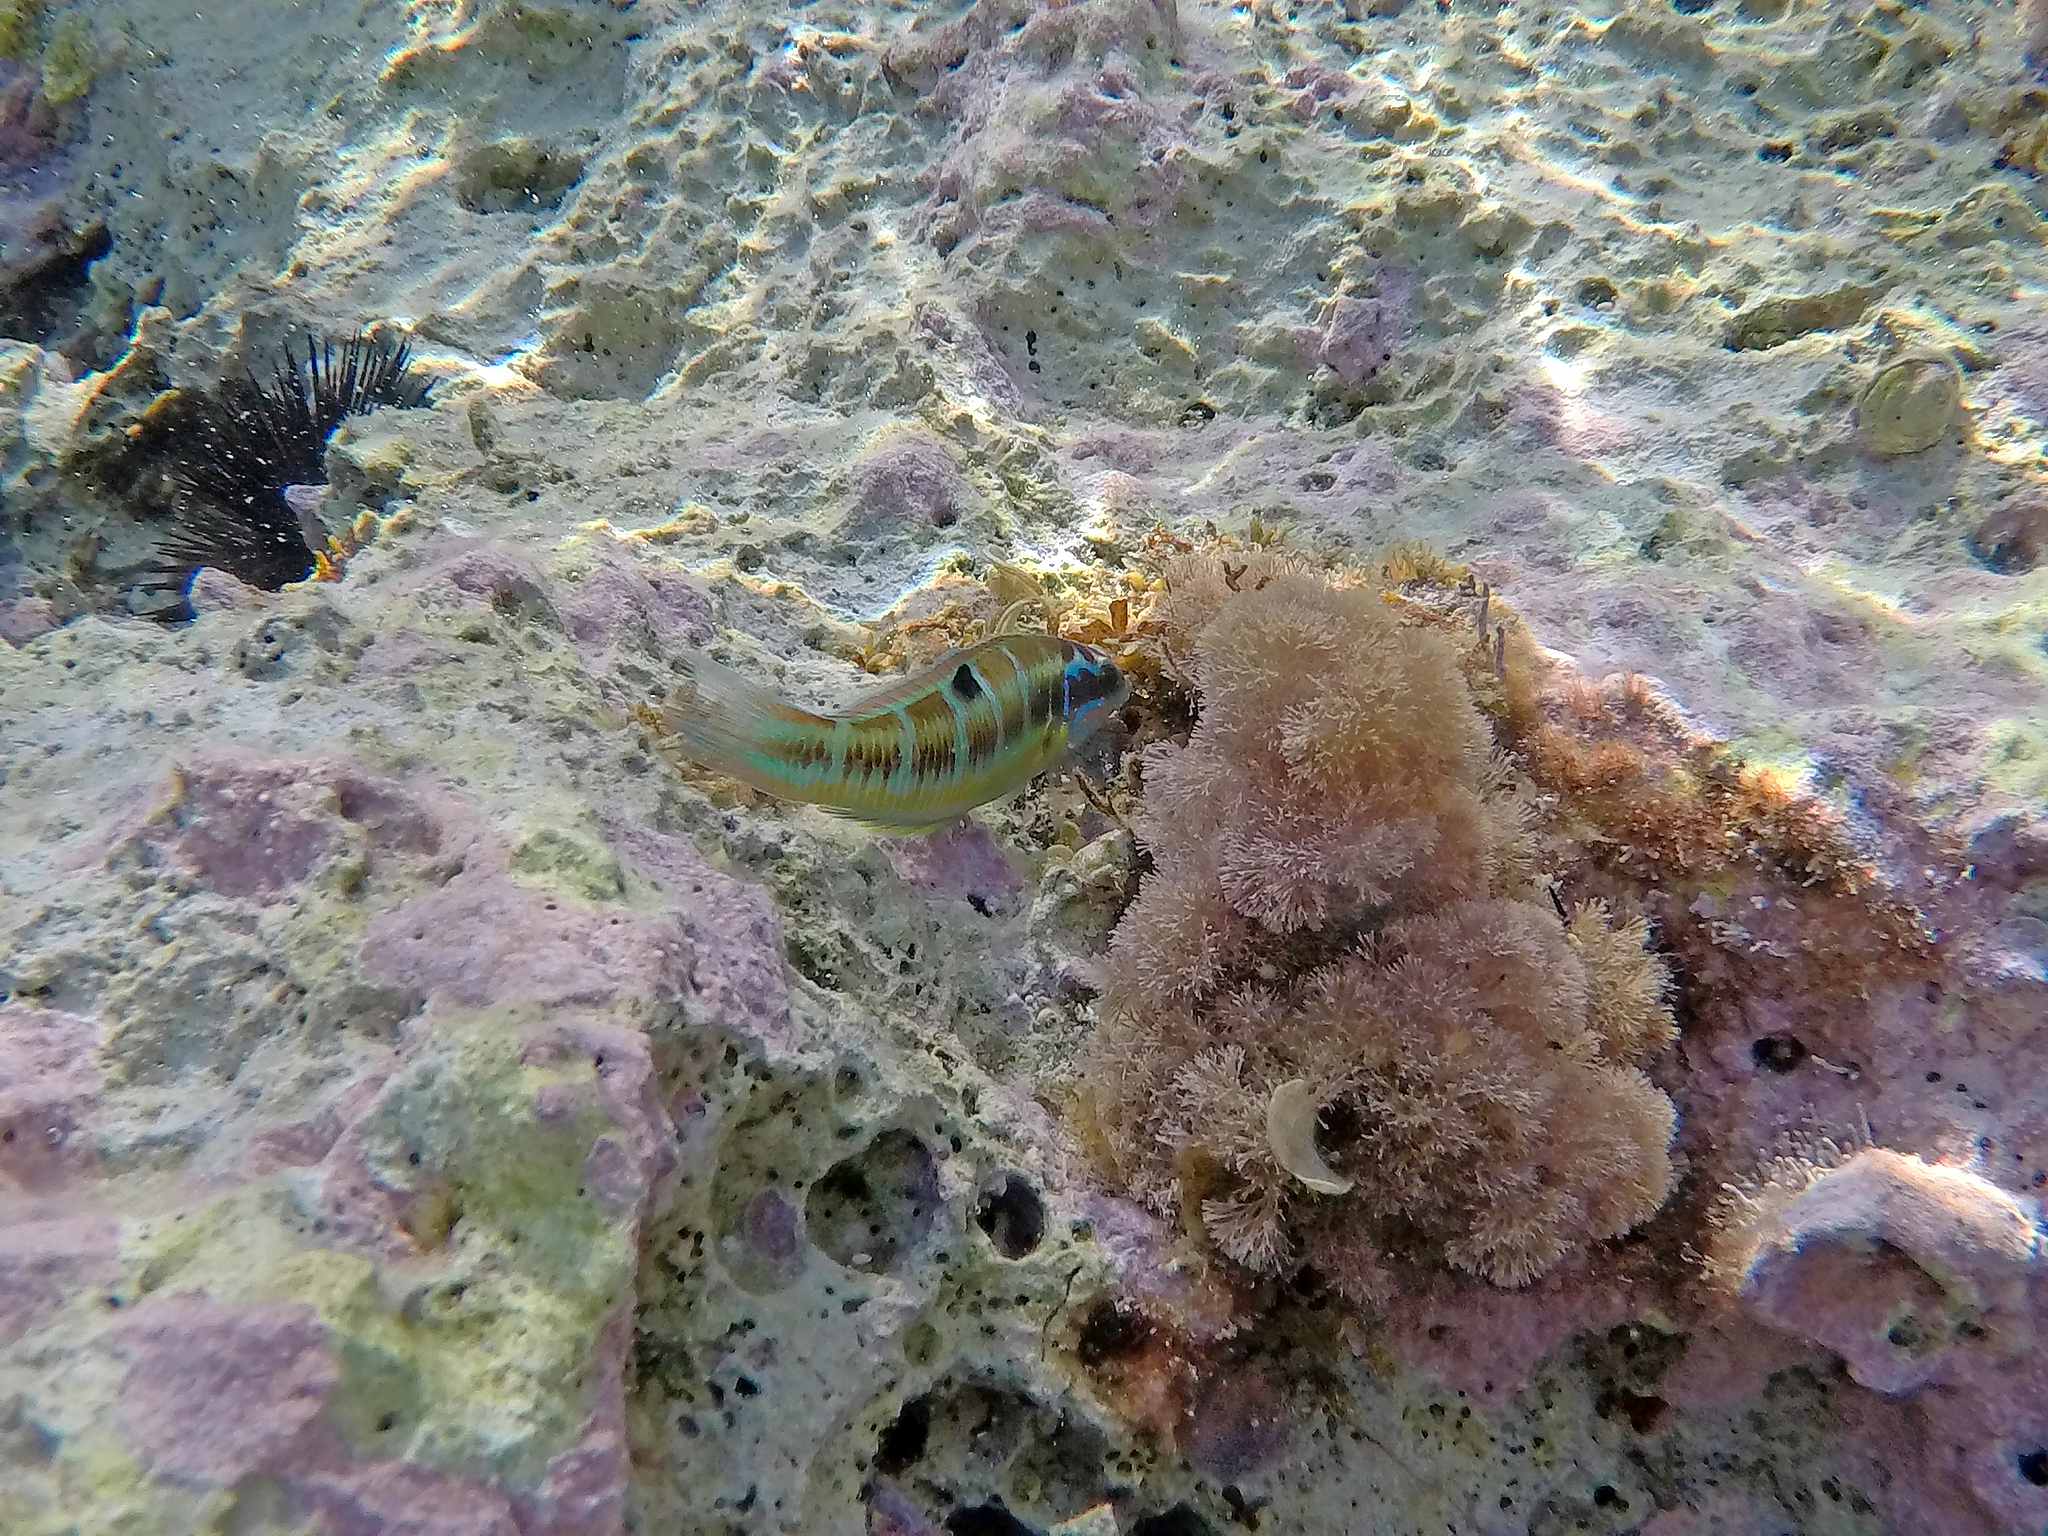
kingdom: Animalia
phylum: Chordata
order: Perciformes
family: Labridae
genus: Thalassoma
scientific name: Thalassoma pavo
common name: Ornate wrasse
